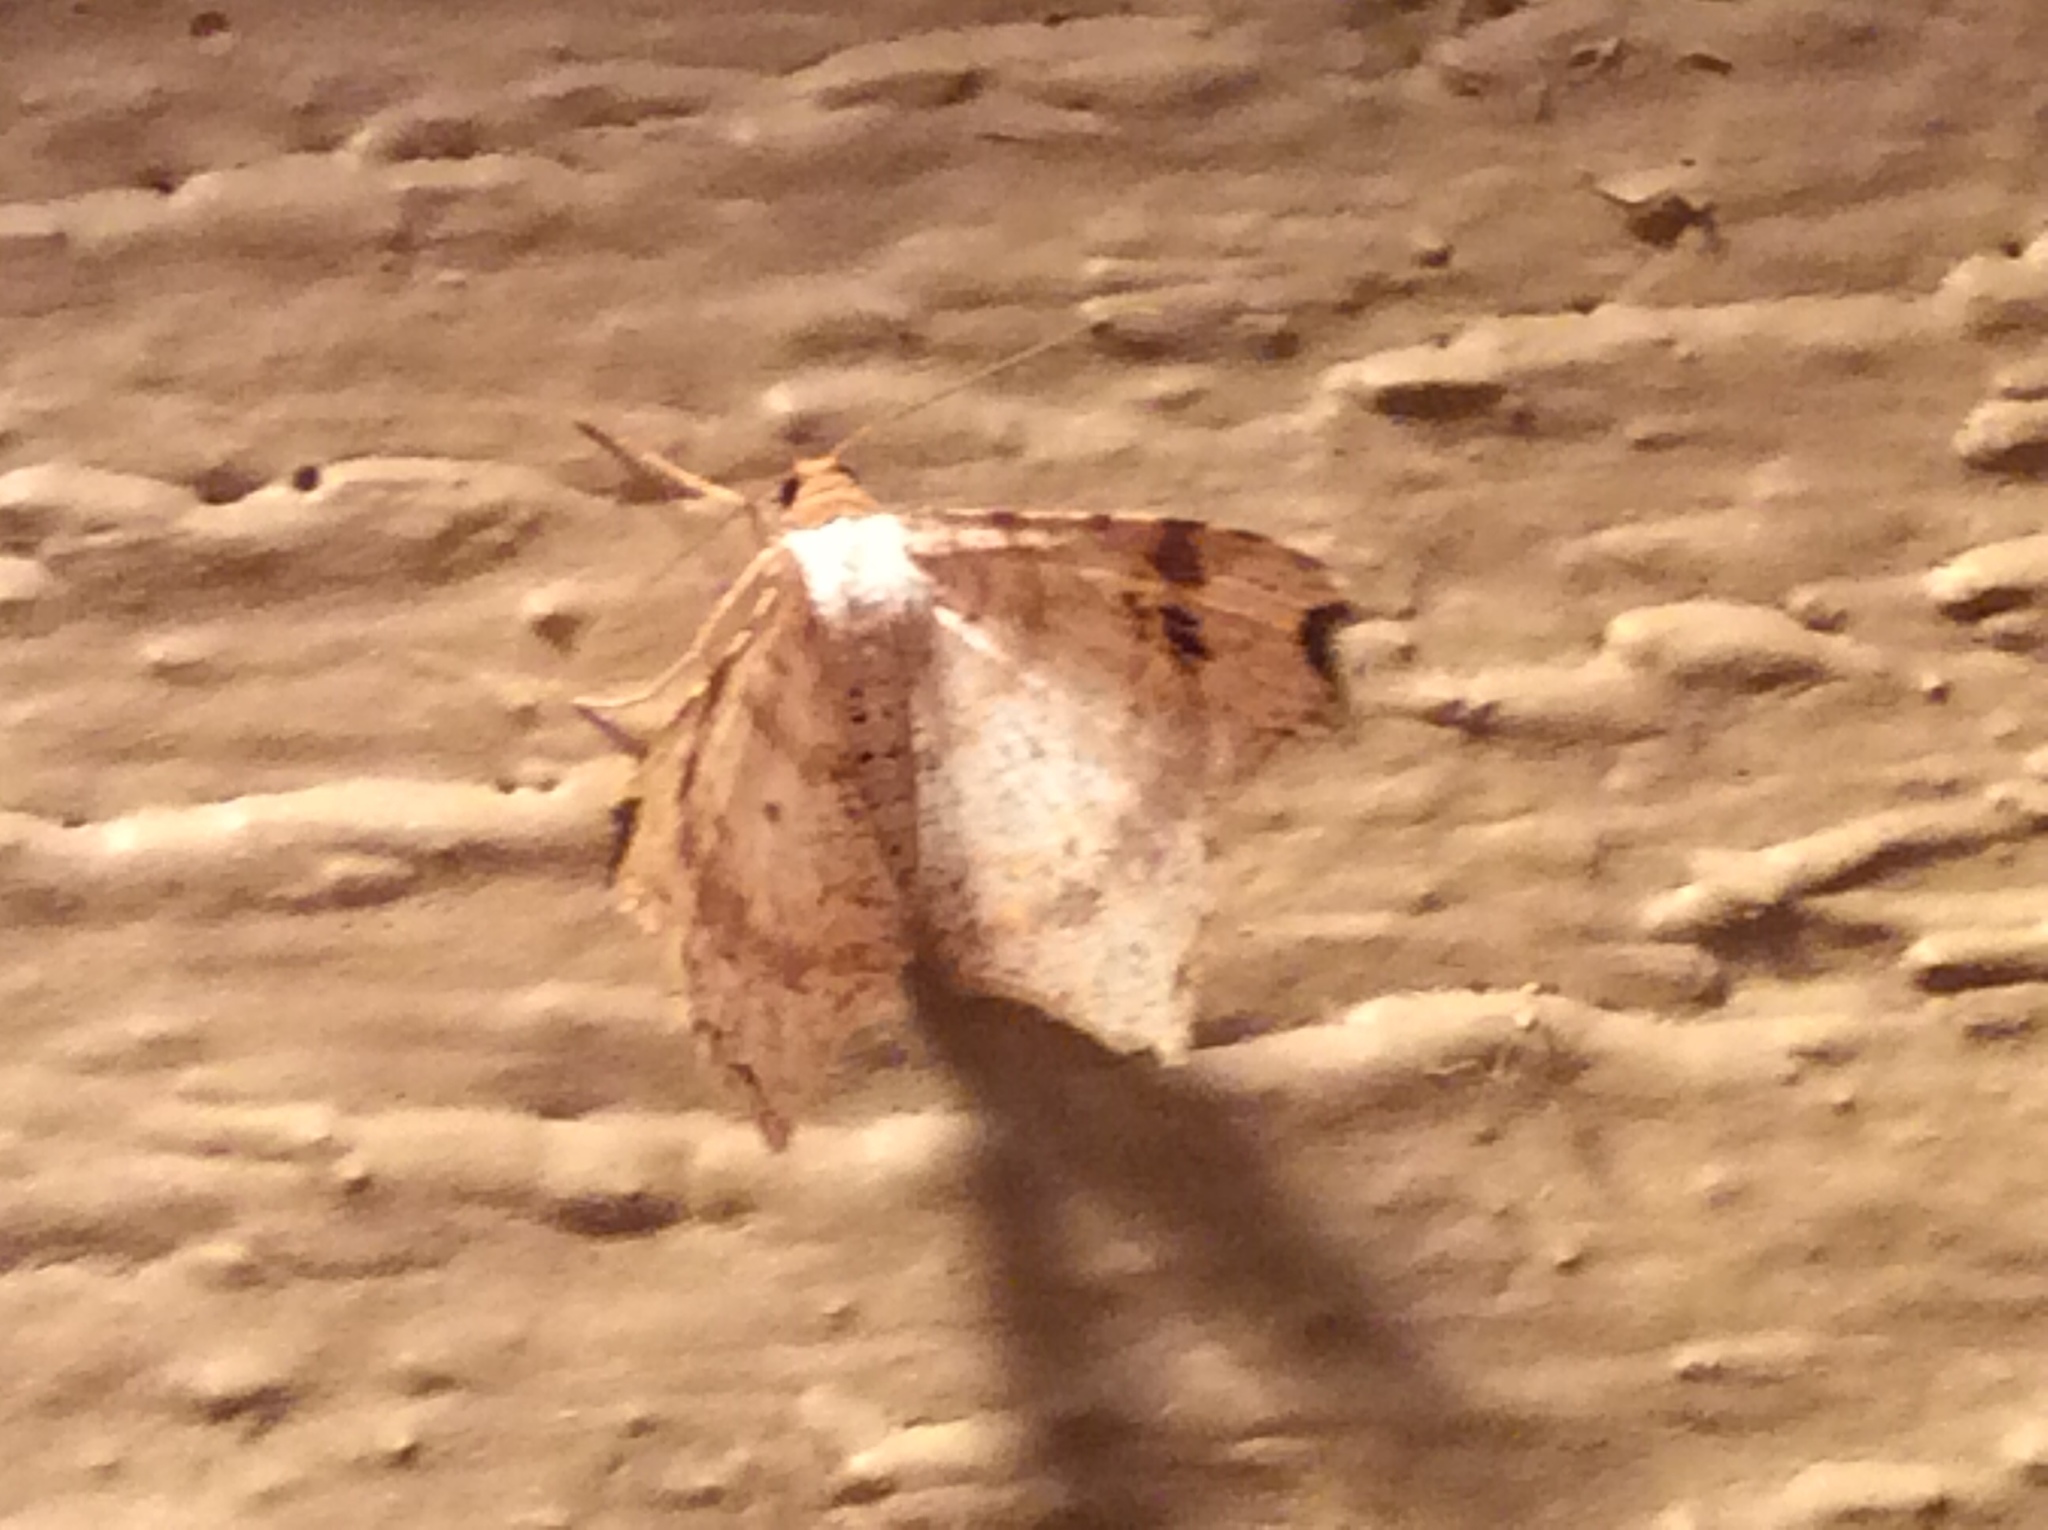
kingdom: Animalia
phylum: Arthropoda
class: Insecta
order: Lepidoptera
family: Geometridae
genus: Macaria
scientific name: Macaria aemulataria
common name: Common angle
